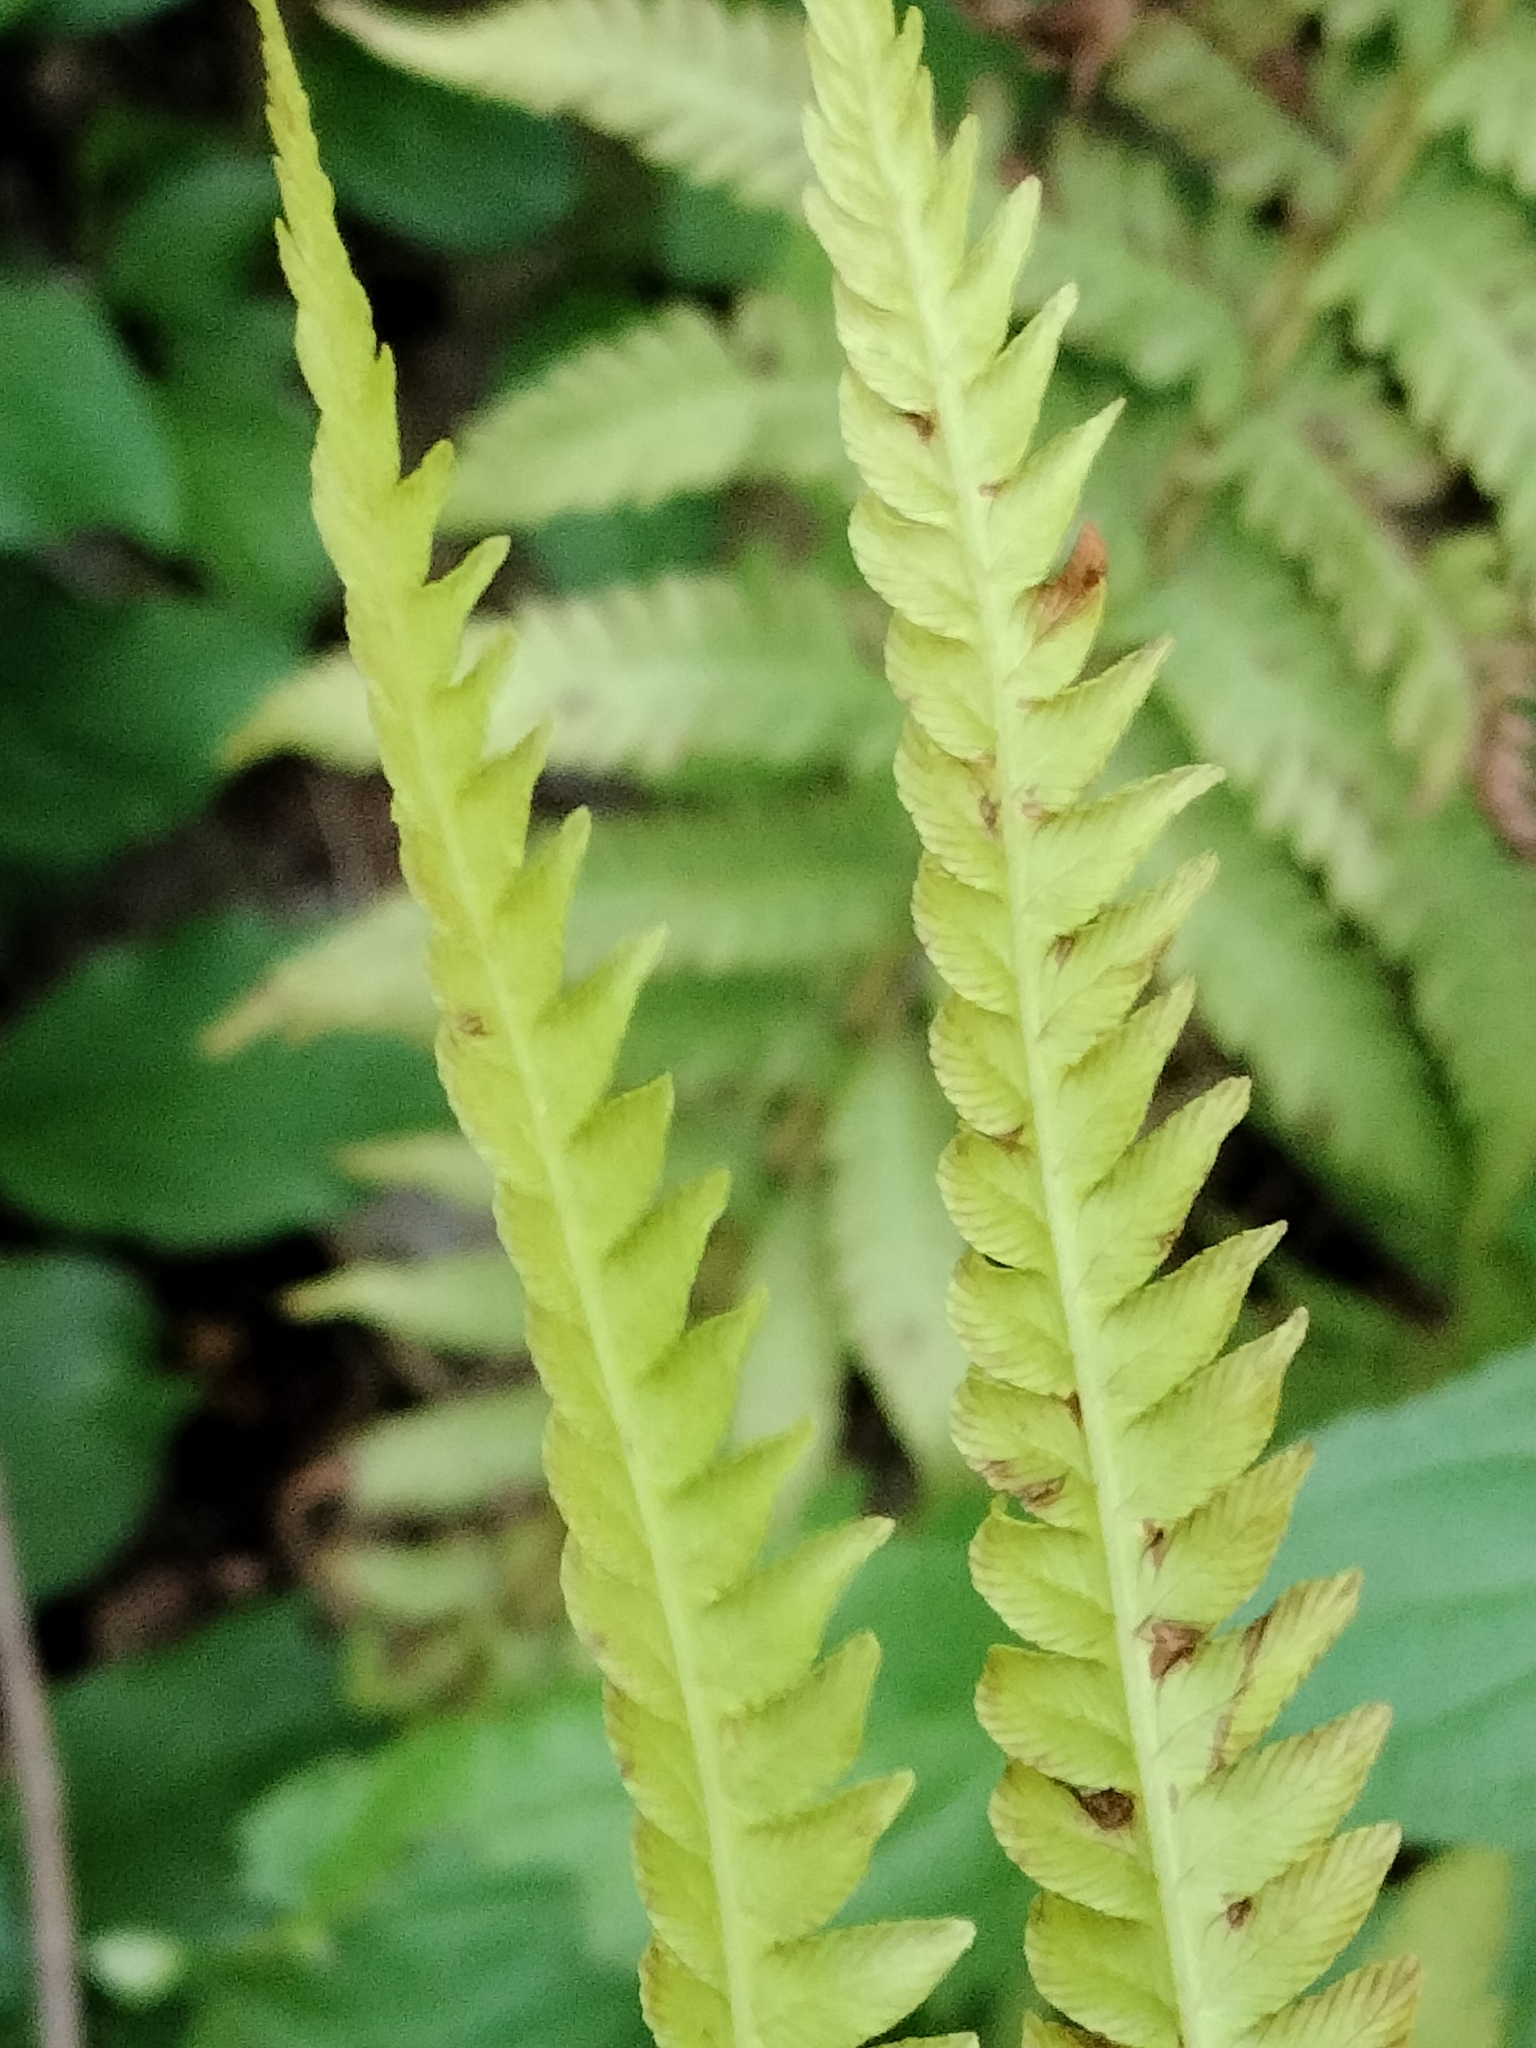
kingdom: Plantae
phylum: Tracheophyta
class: Polypodiopsida
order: Polypodiales
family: Onocleaceae
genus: Matteuccia
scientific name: Matteuccia struthiopteris
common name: Ostrich fern
